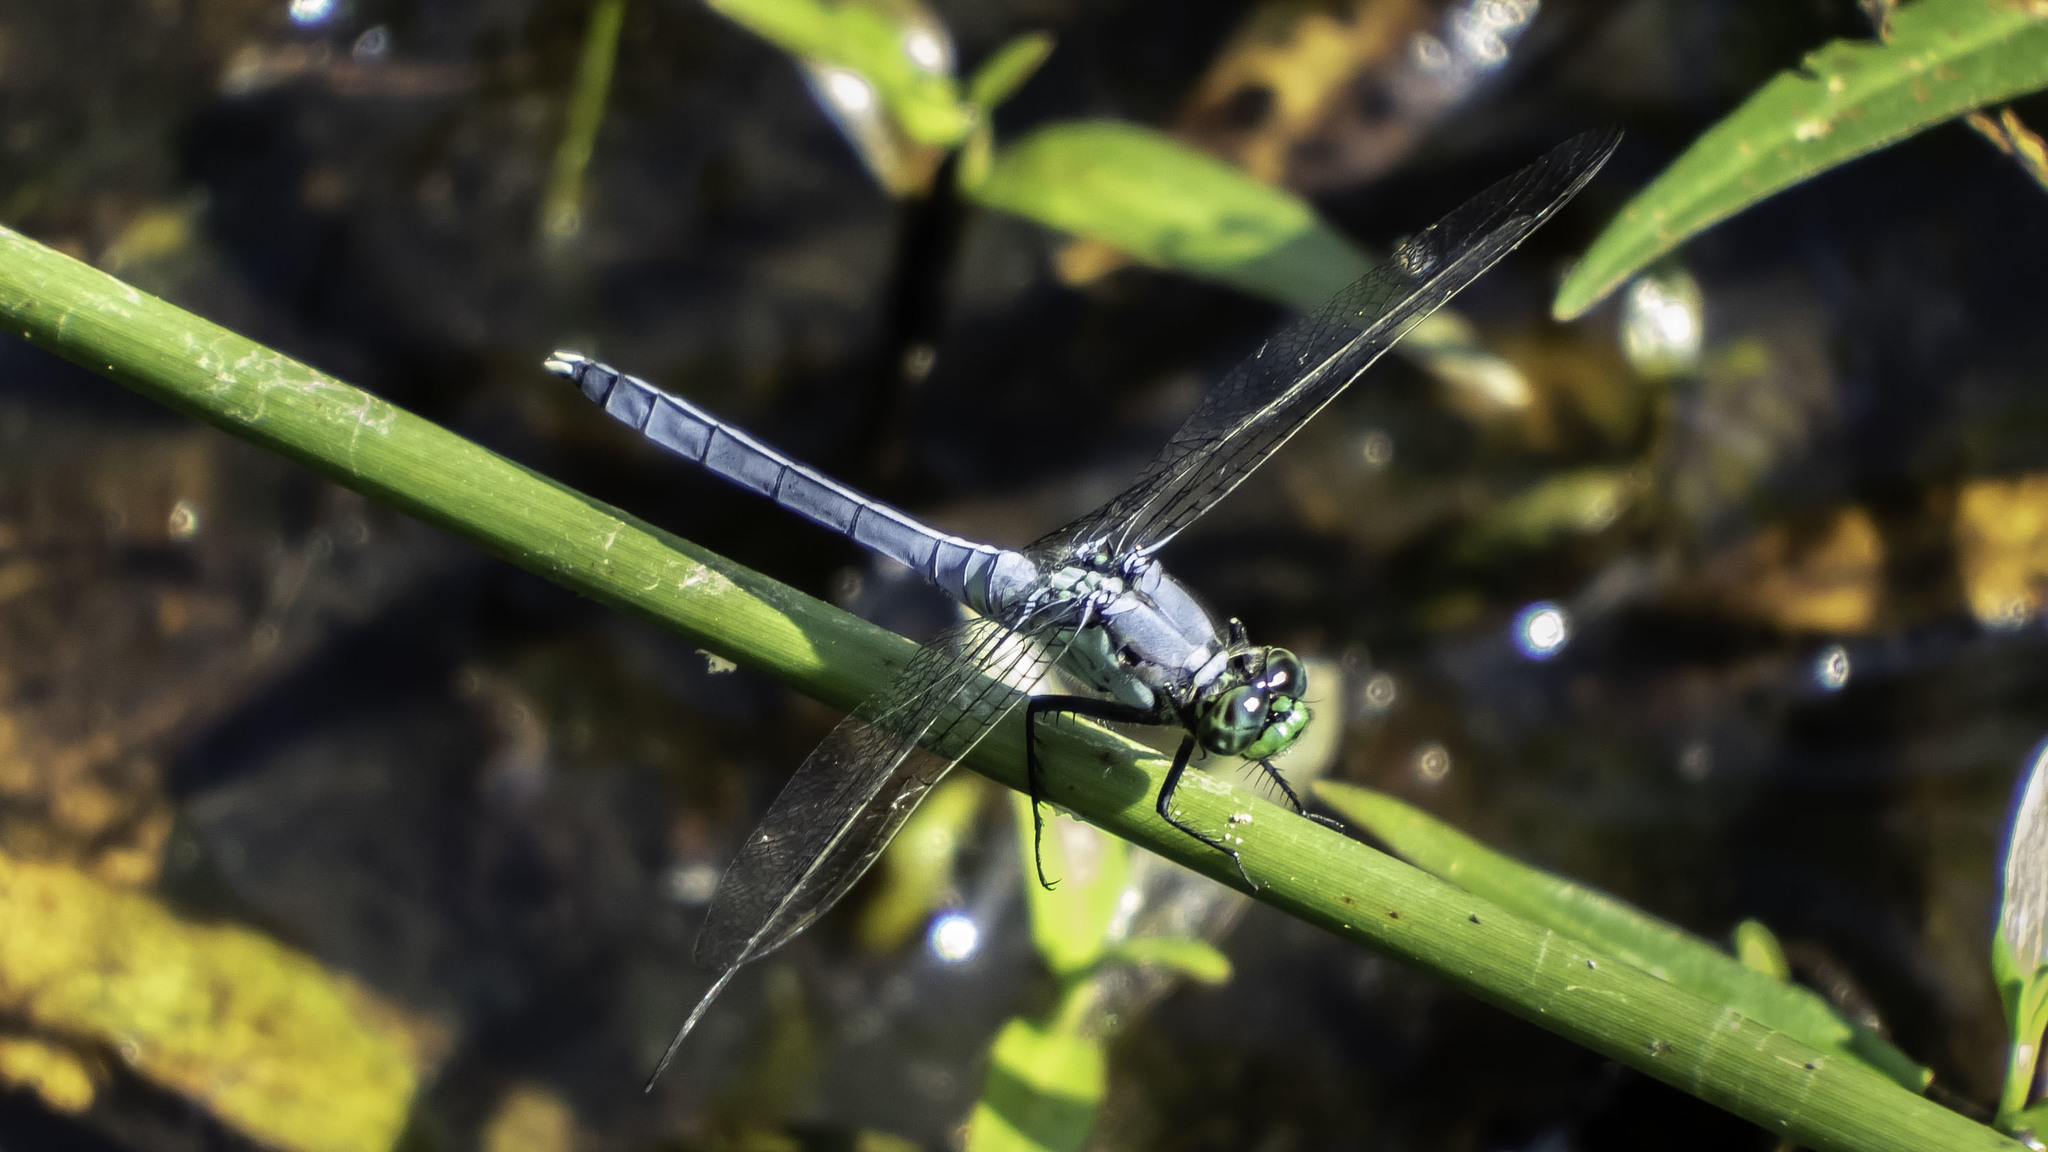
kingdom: Animalia
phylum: Arthropoda
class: Insecta
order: Odonata
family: Libellulidae
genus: Erythemis
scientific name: Erythemis simplicicollis
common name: Eastern pondhawk
